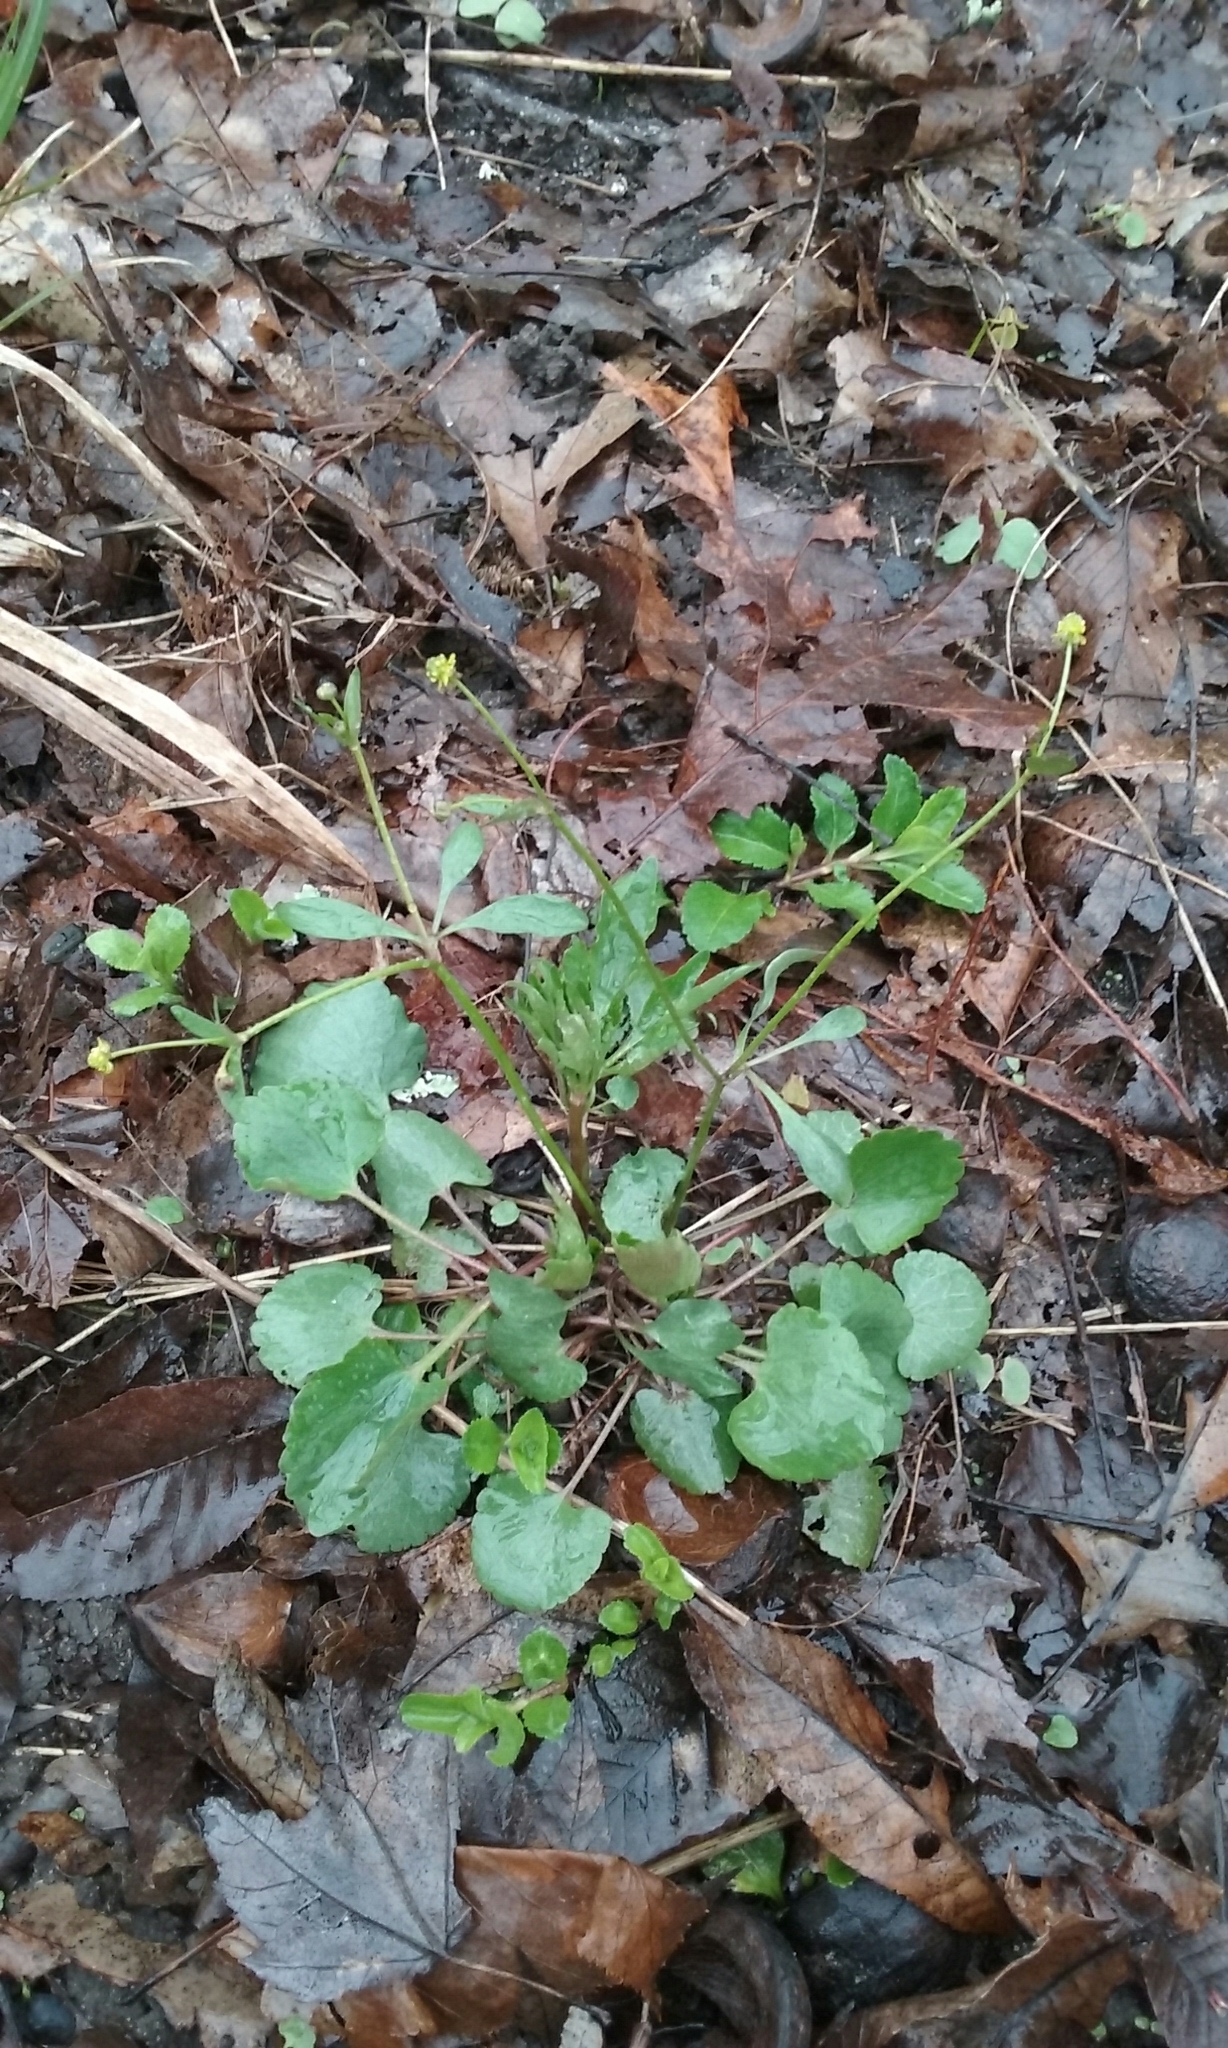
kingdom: Plantae
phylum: Tracheophyta
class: Magnoliopsida
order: Ranunculales
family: Ranunculaceae
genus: Ranunculus
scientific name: Ranunculus abortivus
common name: Early wood buttercup
